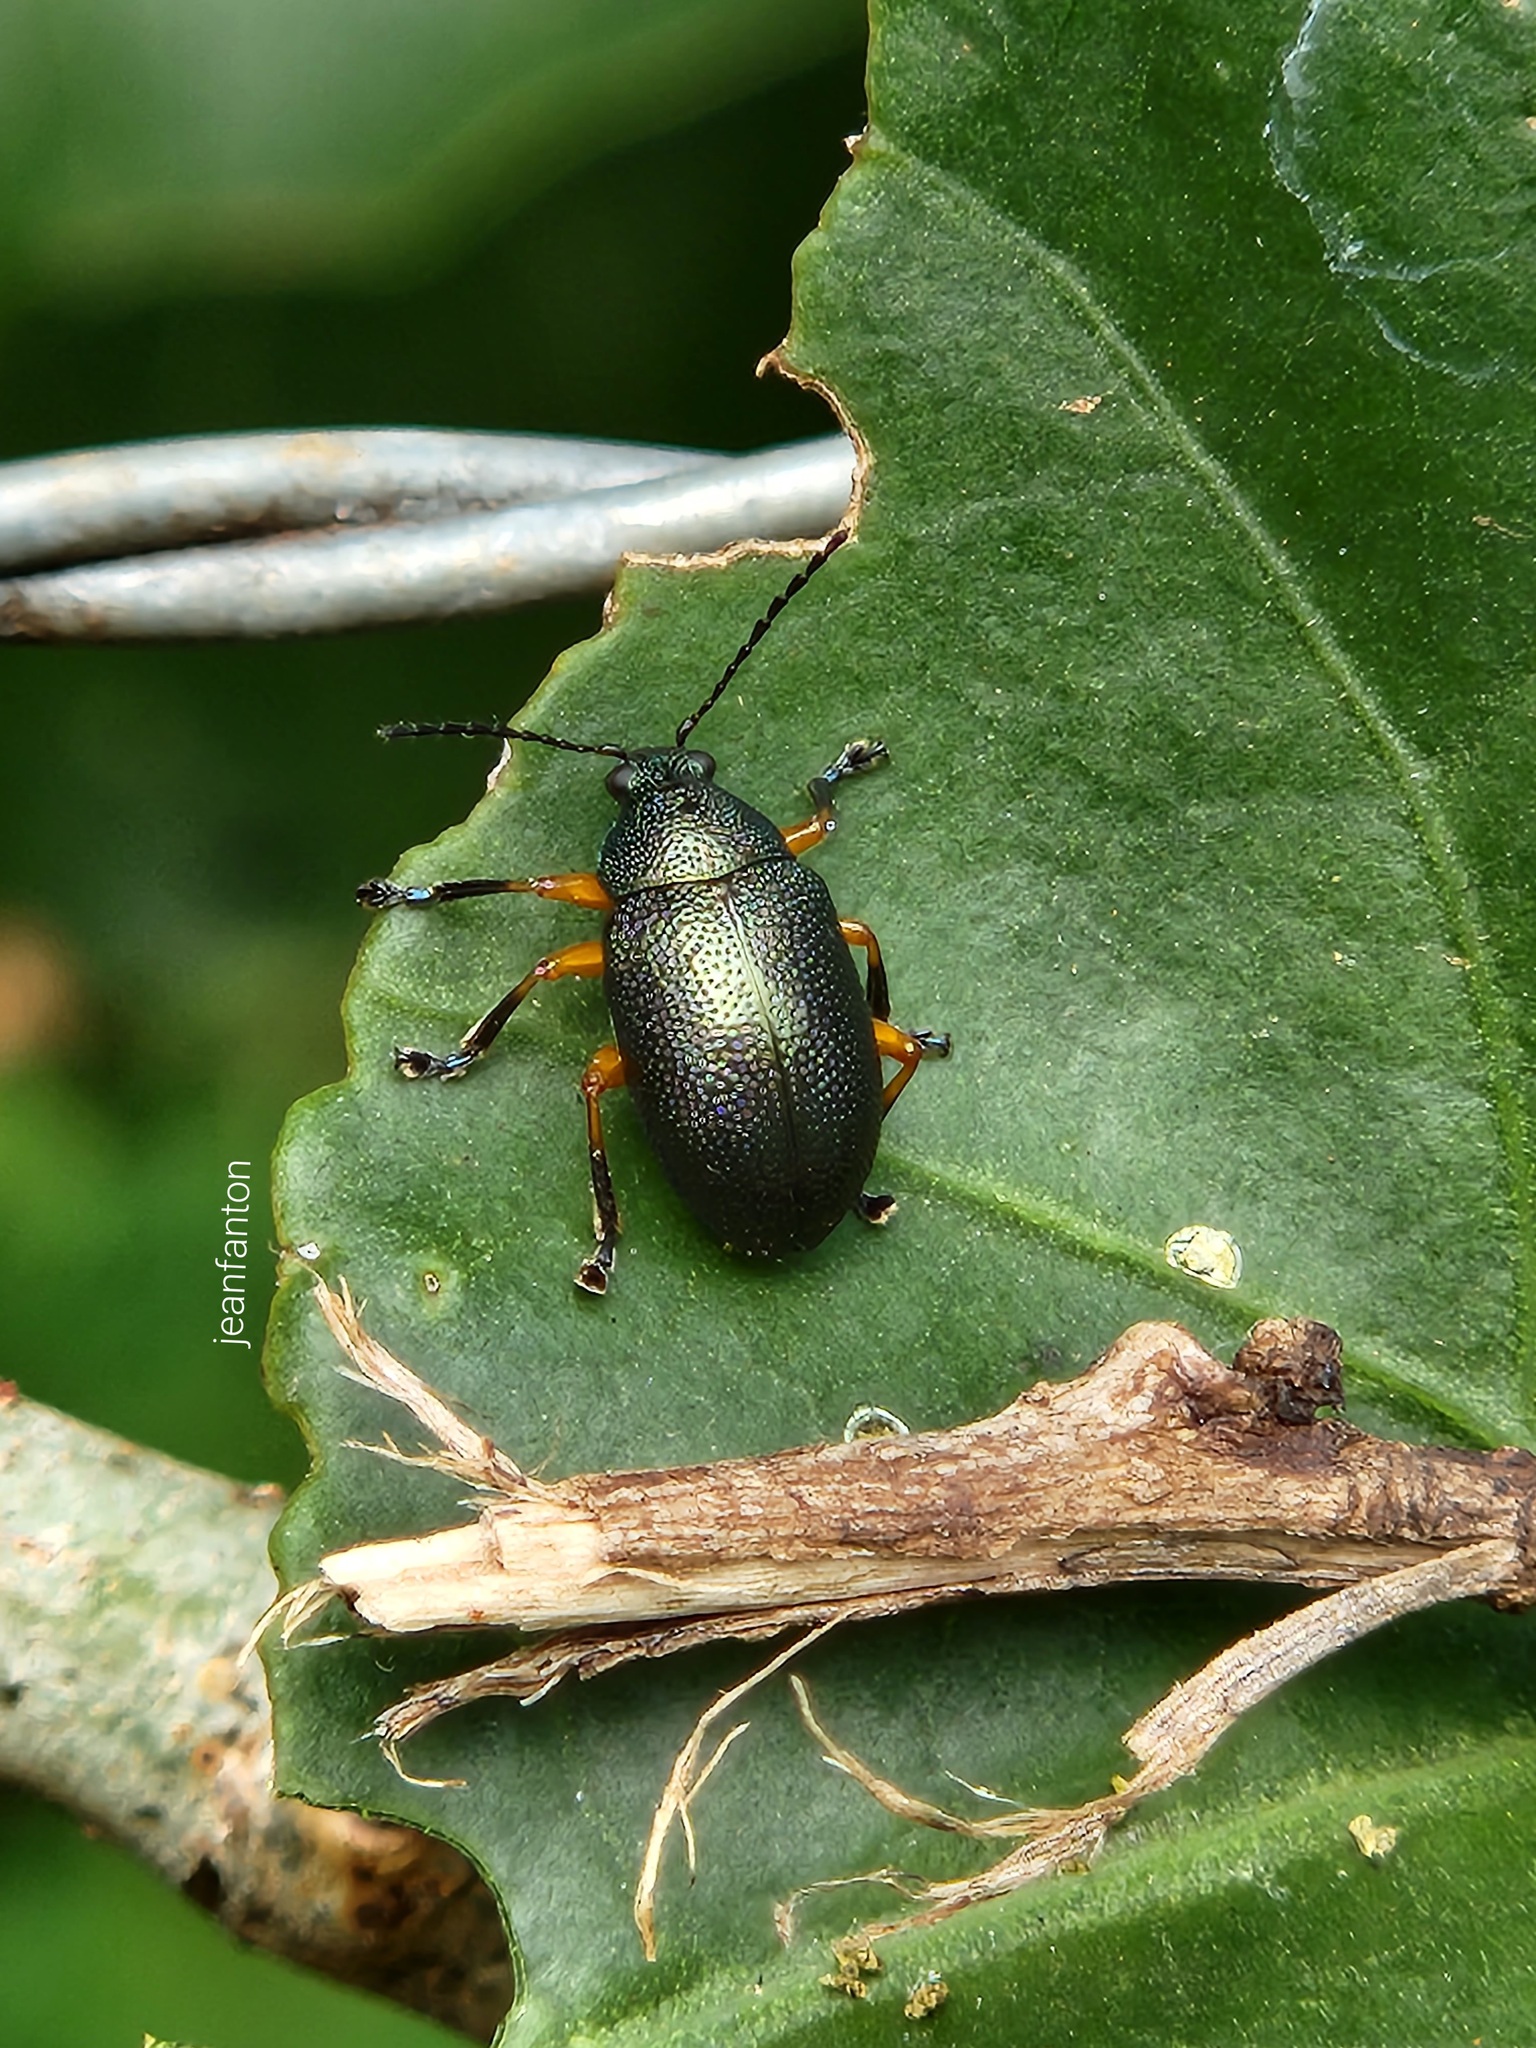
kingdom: Animalia
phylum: Arthropoda
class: Insecta
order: Coleoptera
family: Chrysomelidae
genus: Nodocolaspis
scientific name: Nodocolaspis
